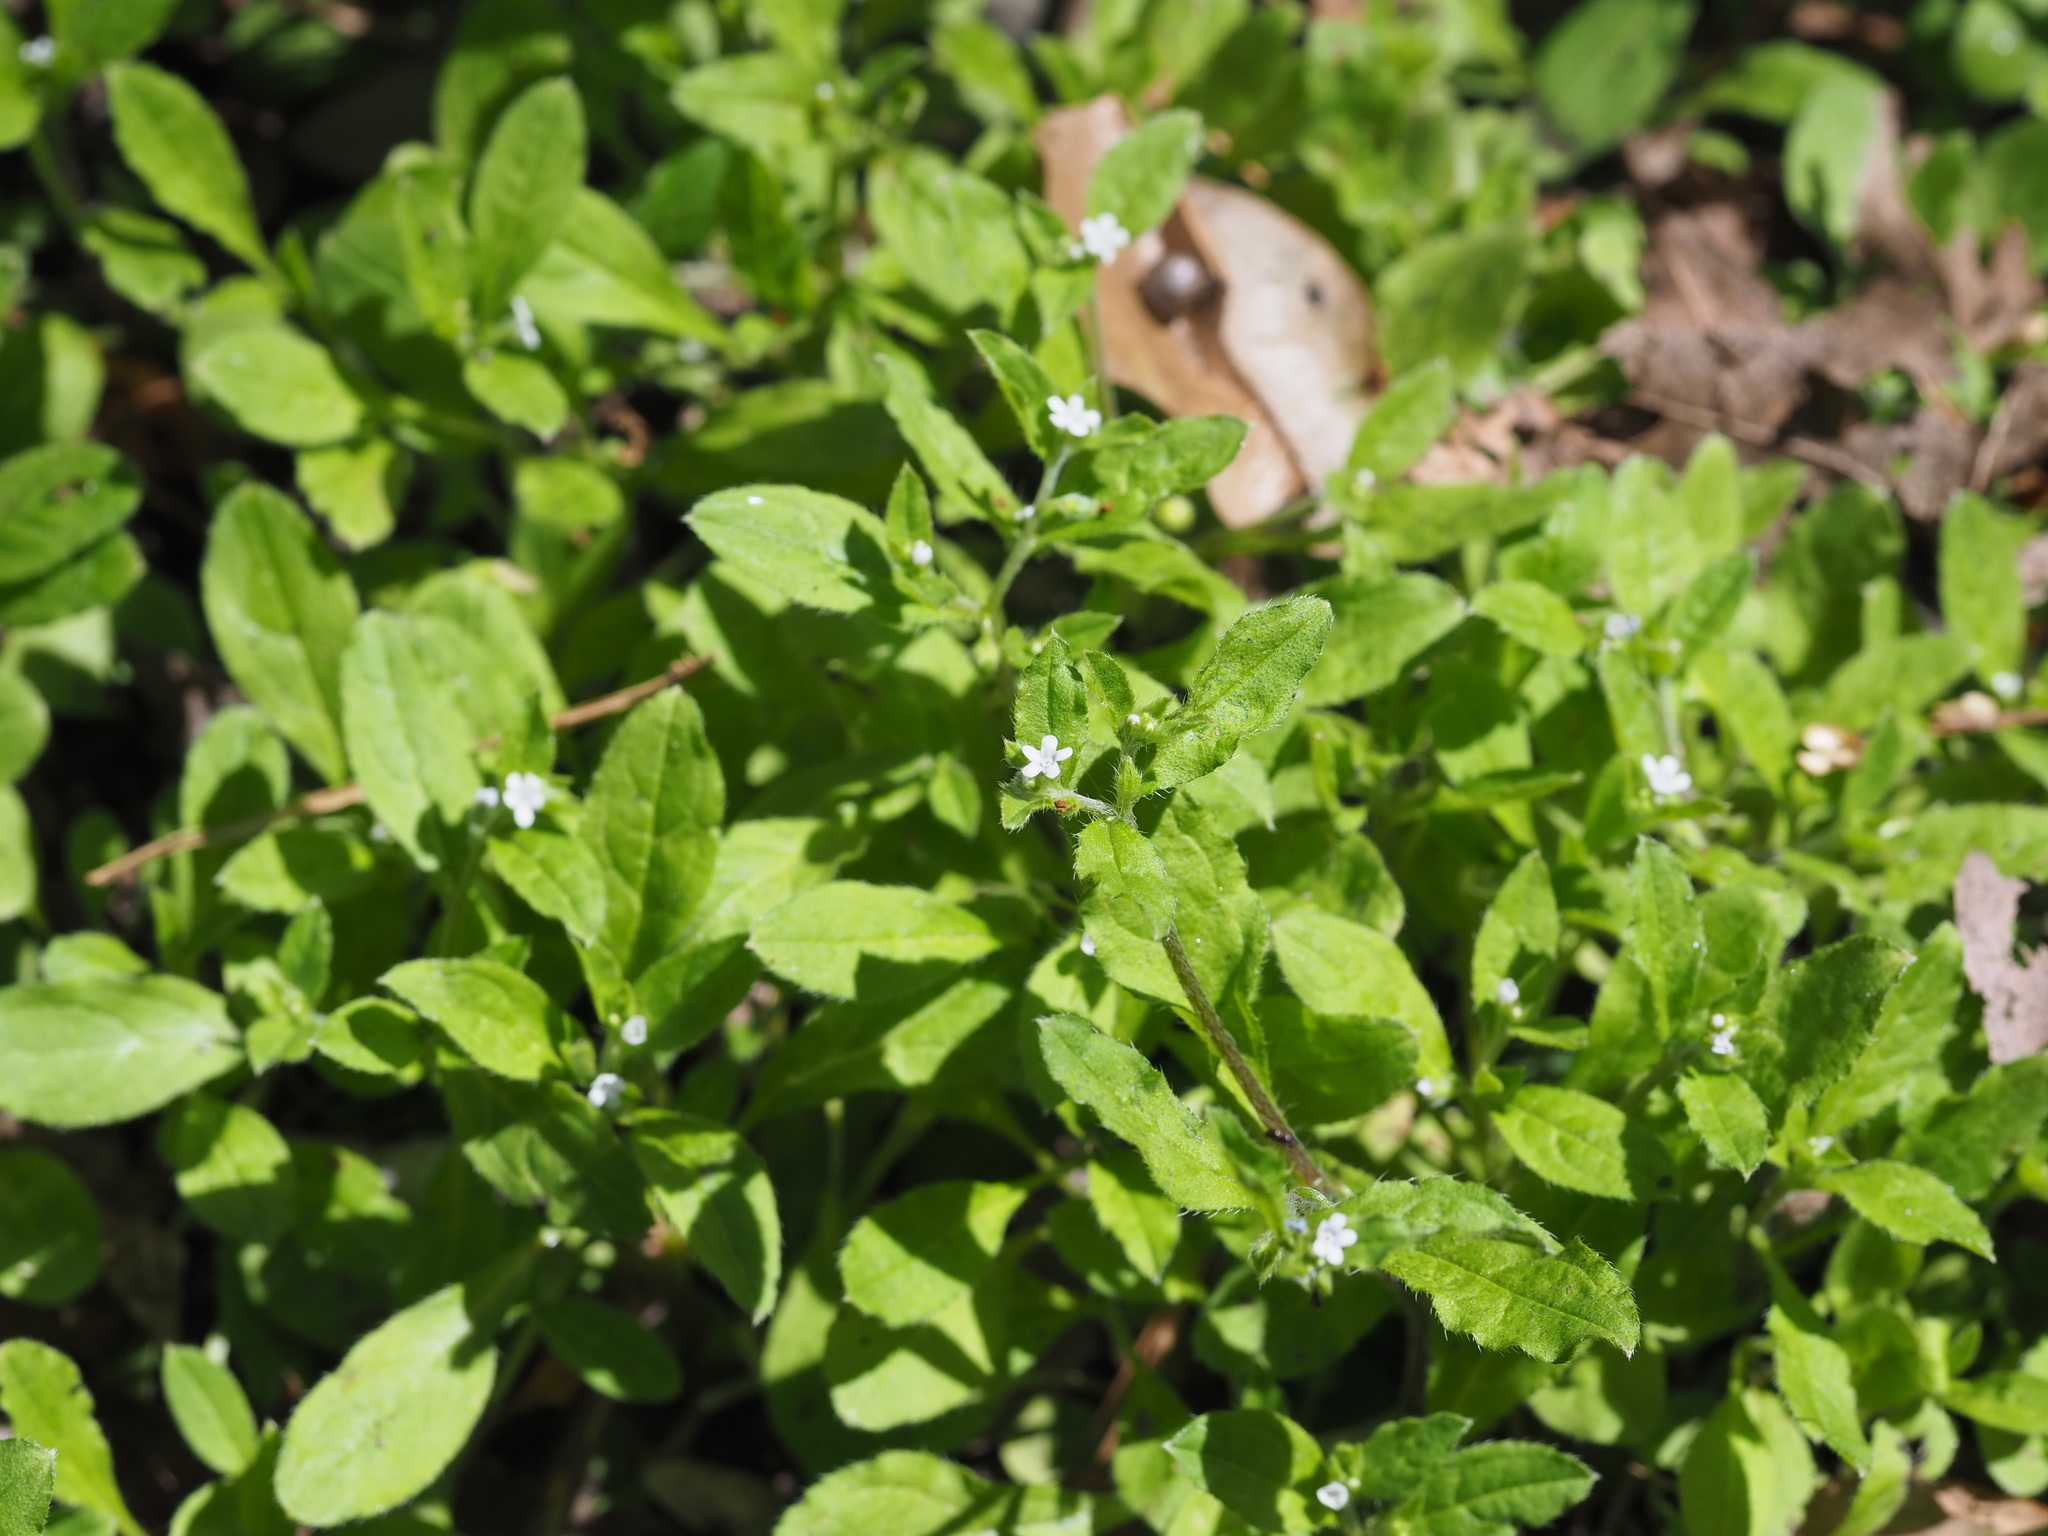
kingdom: Plantae
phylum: Tracheophyta
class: Magnoliopsida
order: Boraginales
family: Boraginaceae
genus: Bothriospermum
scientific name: Bothriospermum zeylanicum
